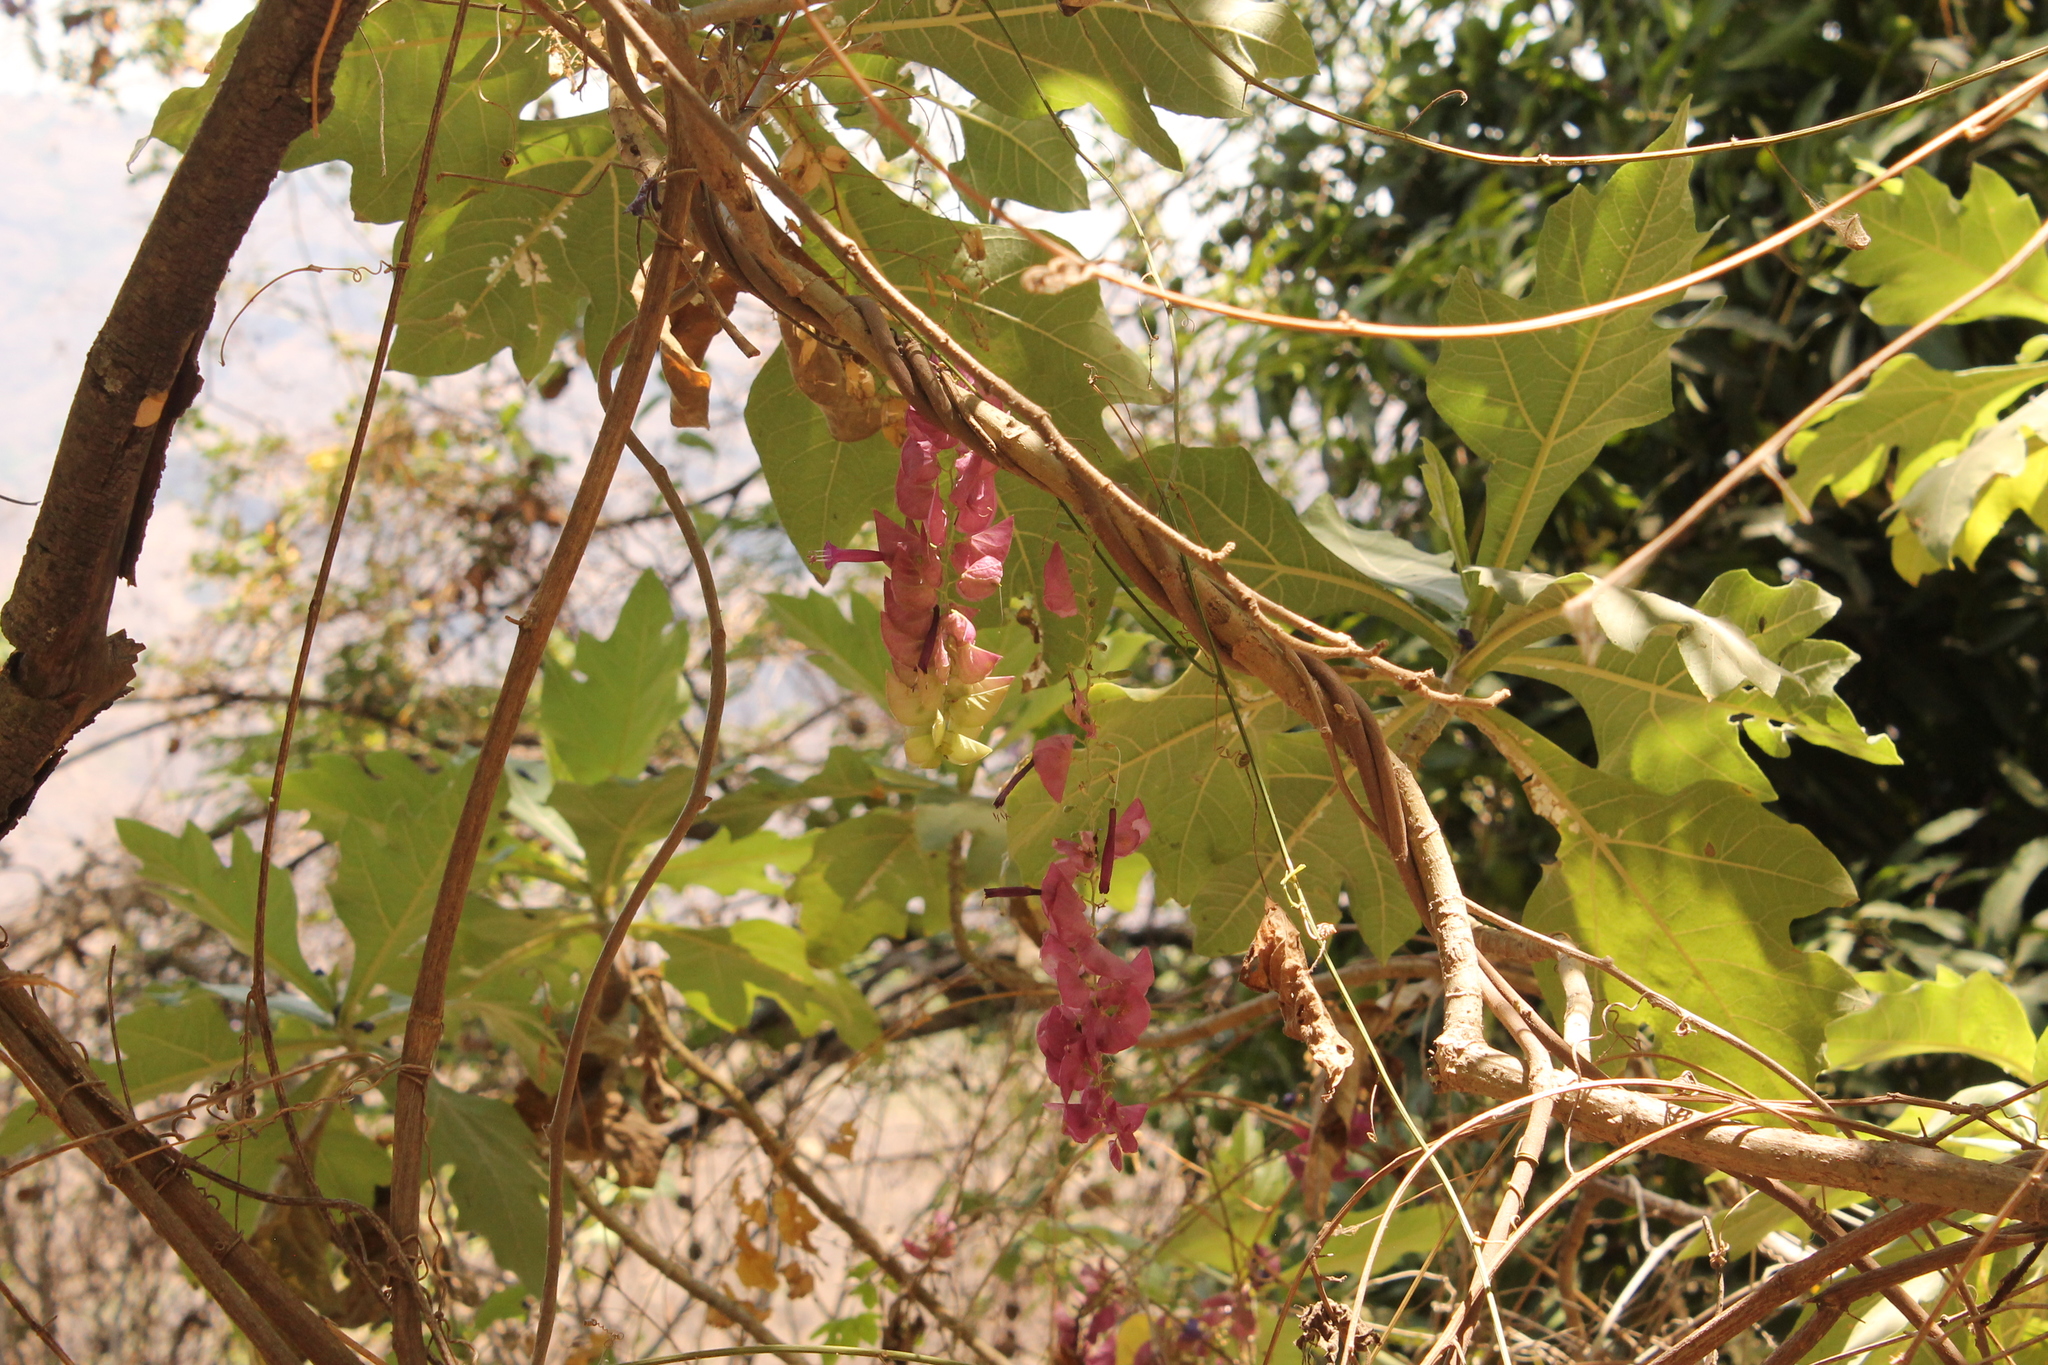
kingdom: Plantae
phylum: Tracheophyta
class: Magnoliopsida
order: Solanales
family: Convolvulaceae
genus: Ipomoea
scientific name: Ipomoea bracteata
